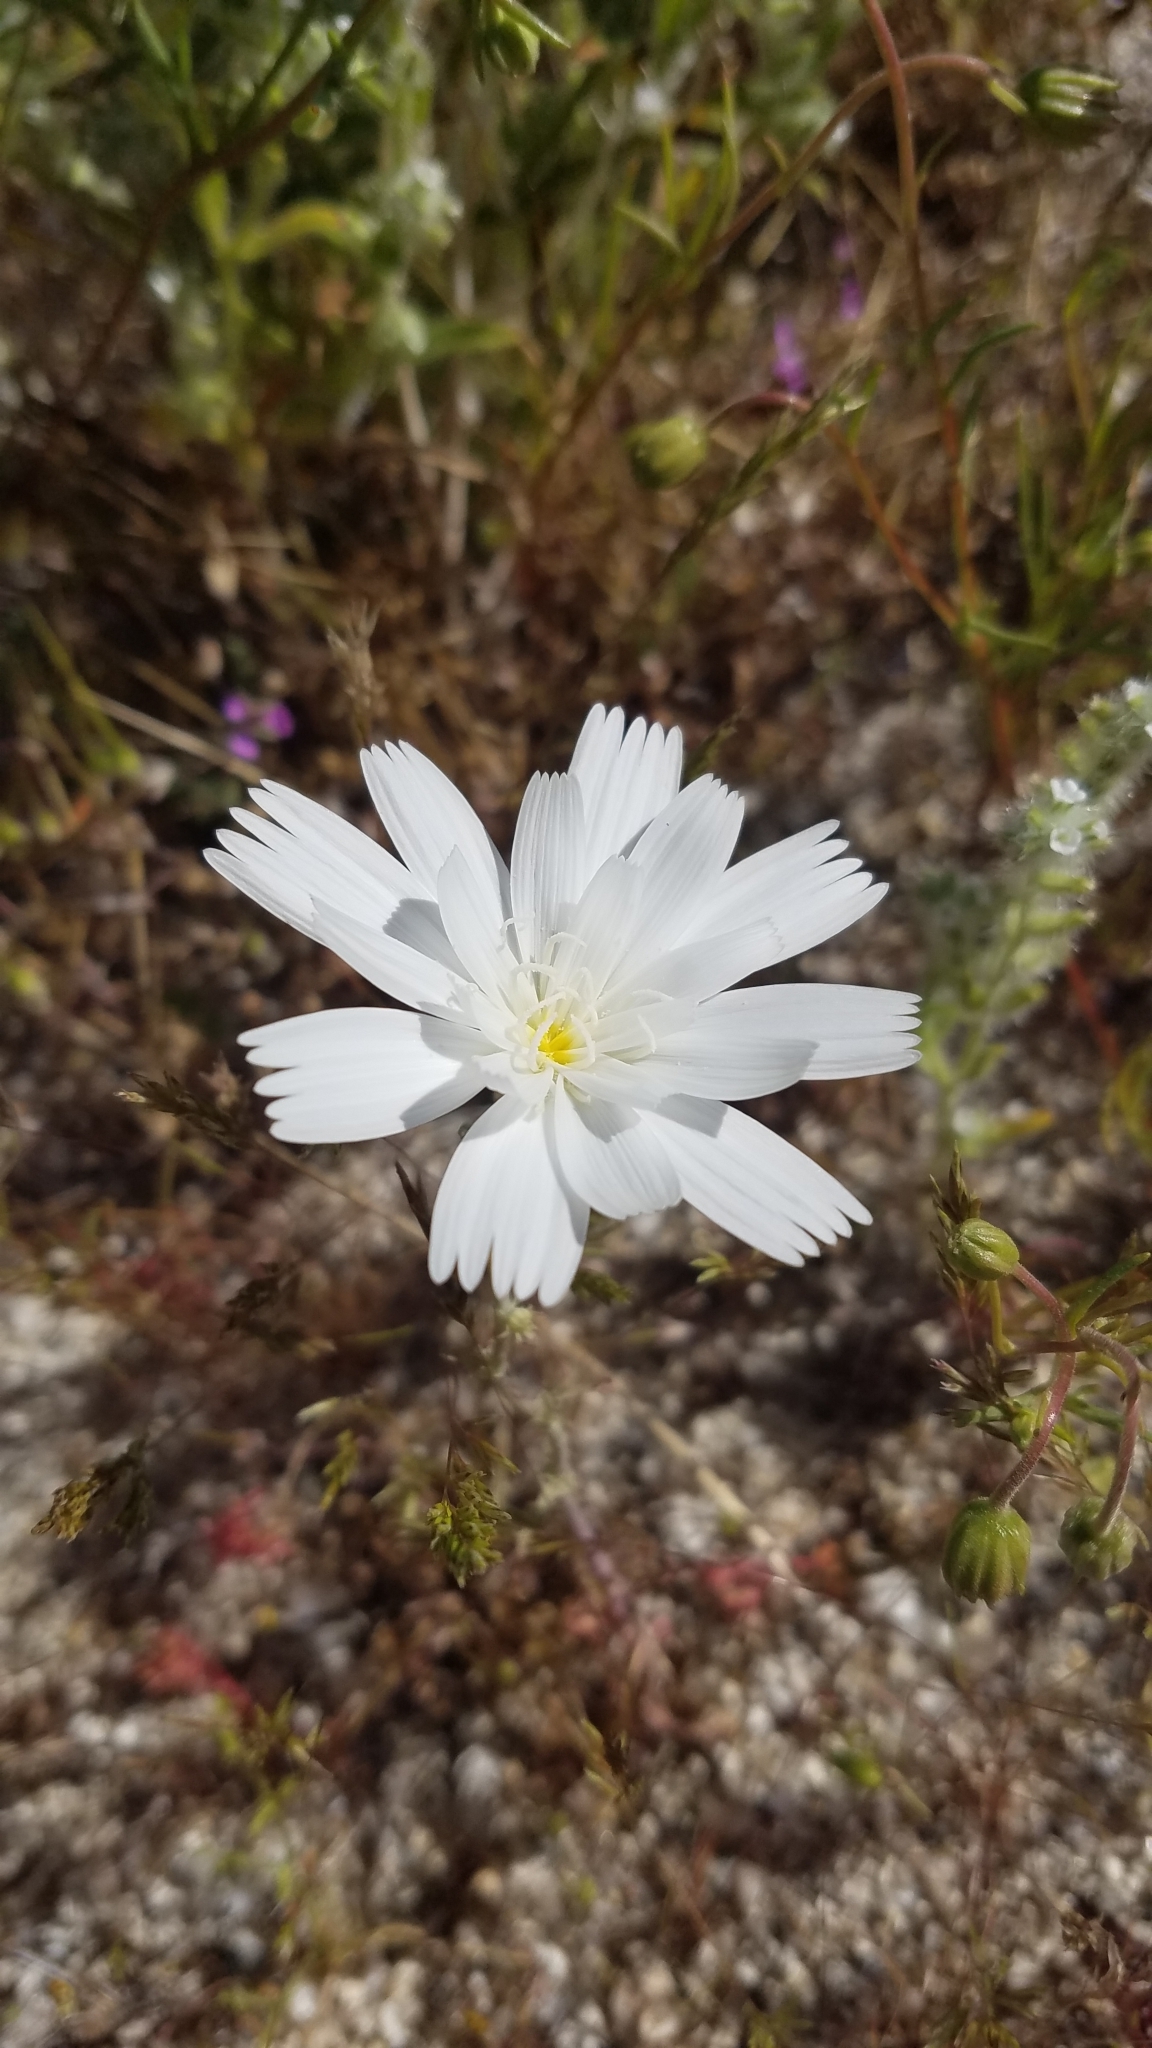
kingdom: Plantae
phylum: Tracheophyta
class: Magnoliopsida
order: Asterales
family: Asteraceae
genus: Rafinesquia
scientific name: Rafinesquia neomexicana
